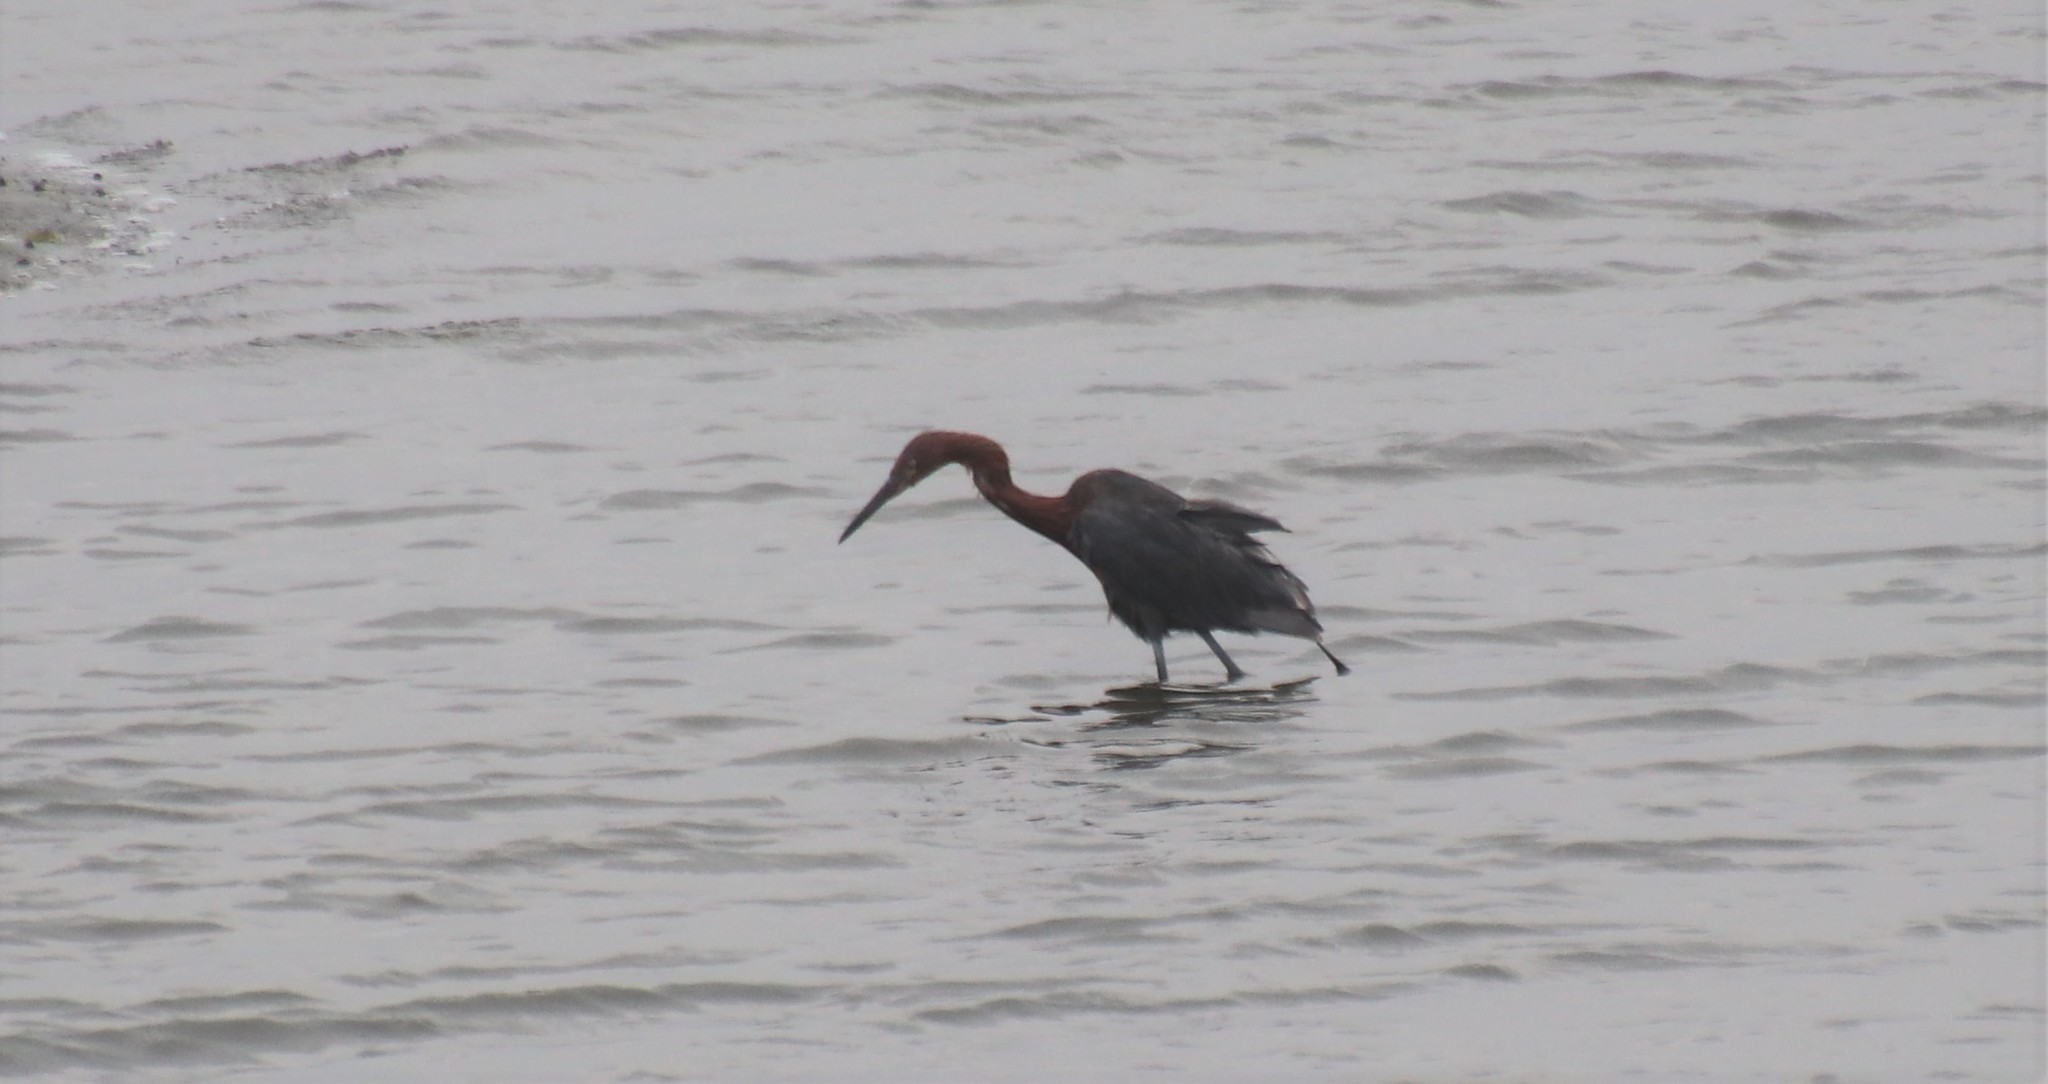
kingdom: Animalia
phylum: Chordata
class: Aves
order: Pelecaniformes
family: Ardeidae
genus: Egretta
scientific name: Egretta rufescens
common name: Reddish egret
